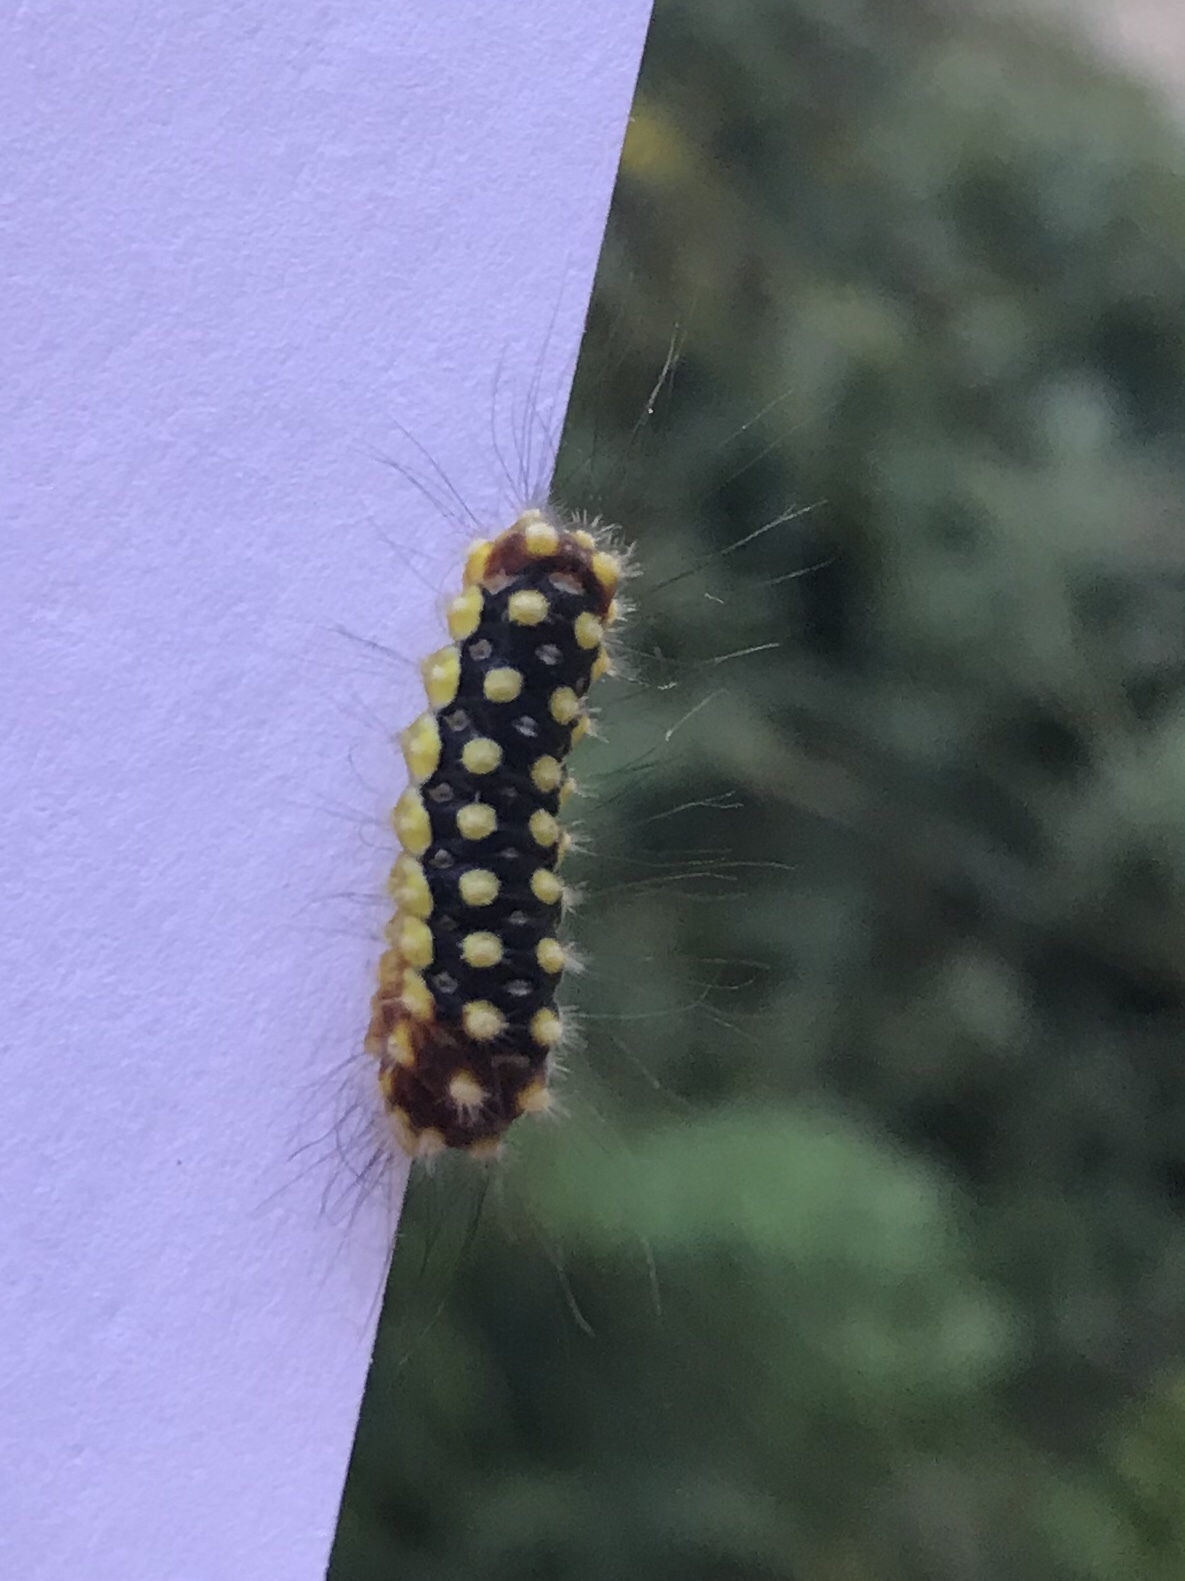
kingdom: Animalia
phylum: Arthropoda
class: Insecta
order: Lepidoptera
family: Megalopygidae
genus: Norape
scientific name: Norape cretata
